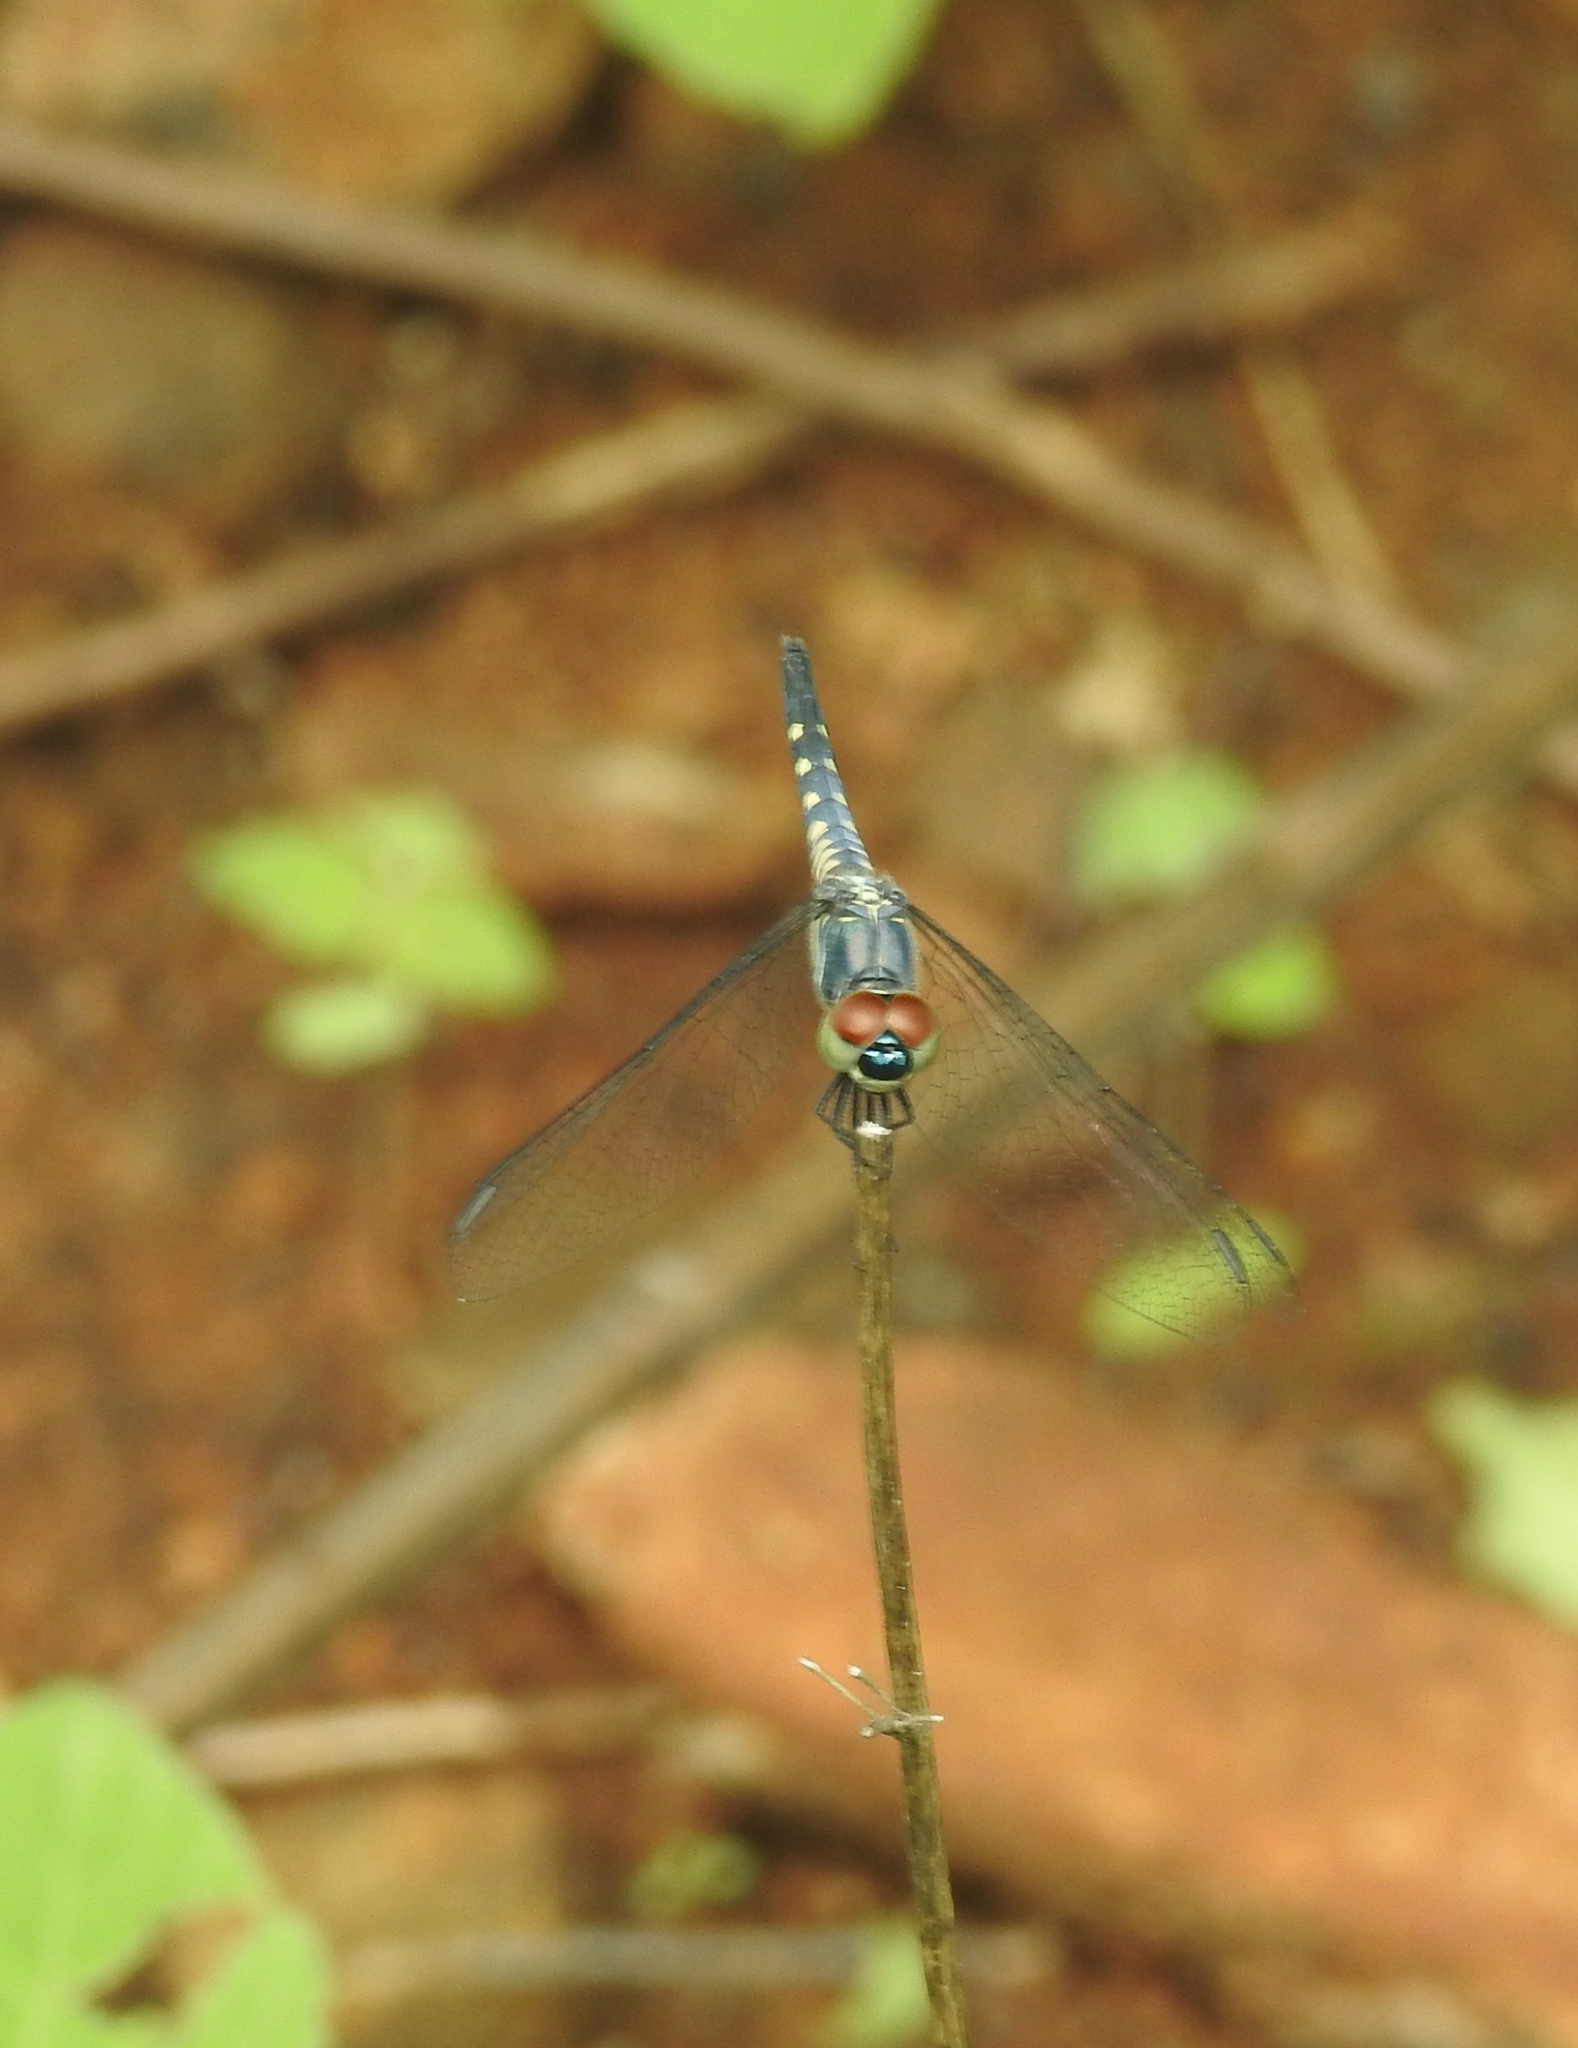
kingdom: Animalia
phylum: Arthropoda
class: Insecta
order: Odonata
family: Libellulidae
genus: Brachydiplax
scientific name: Brachydiplax sobrina
